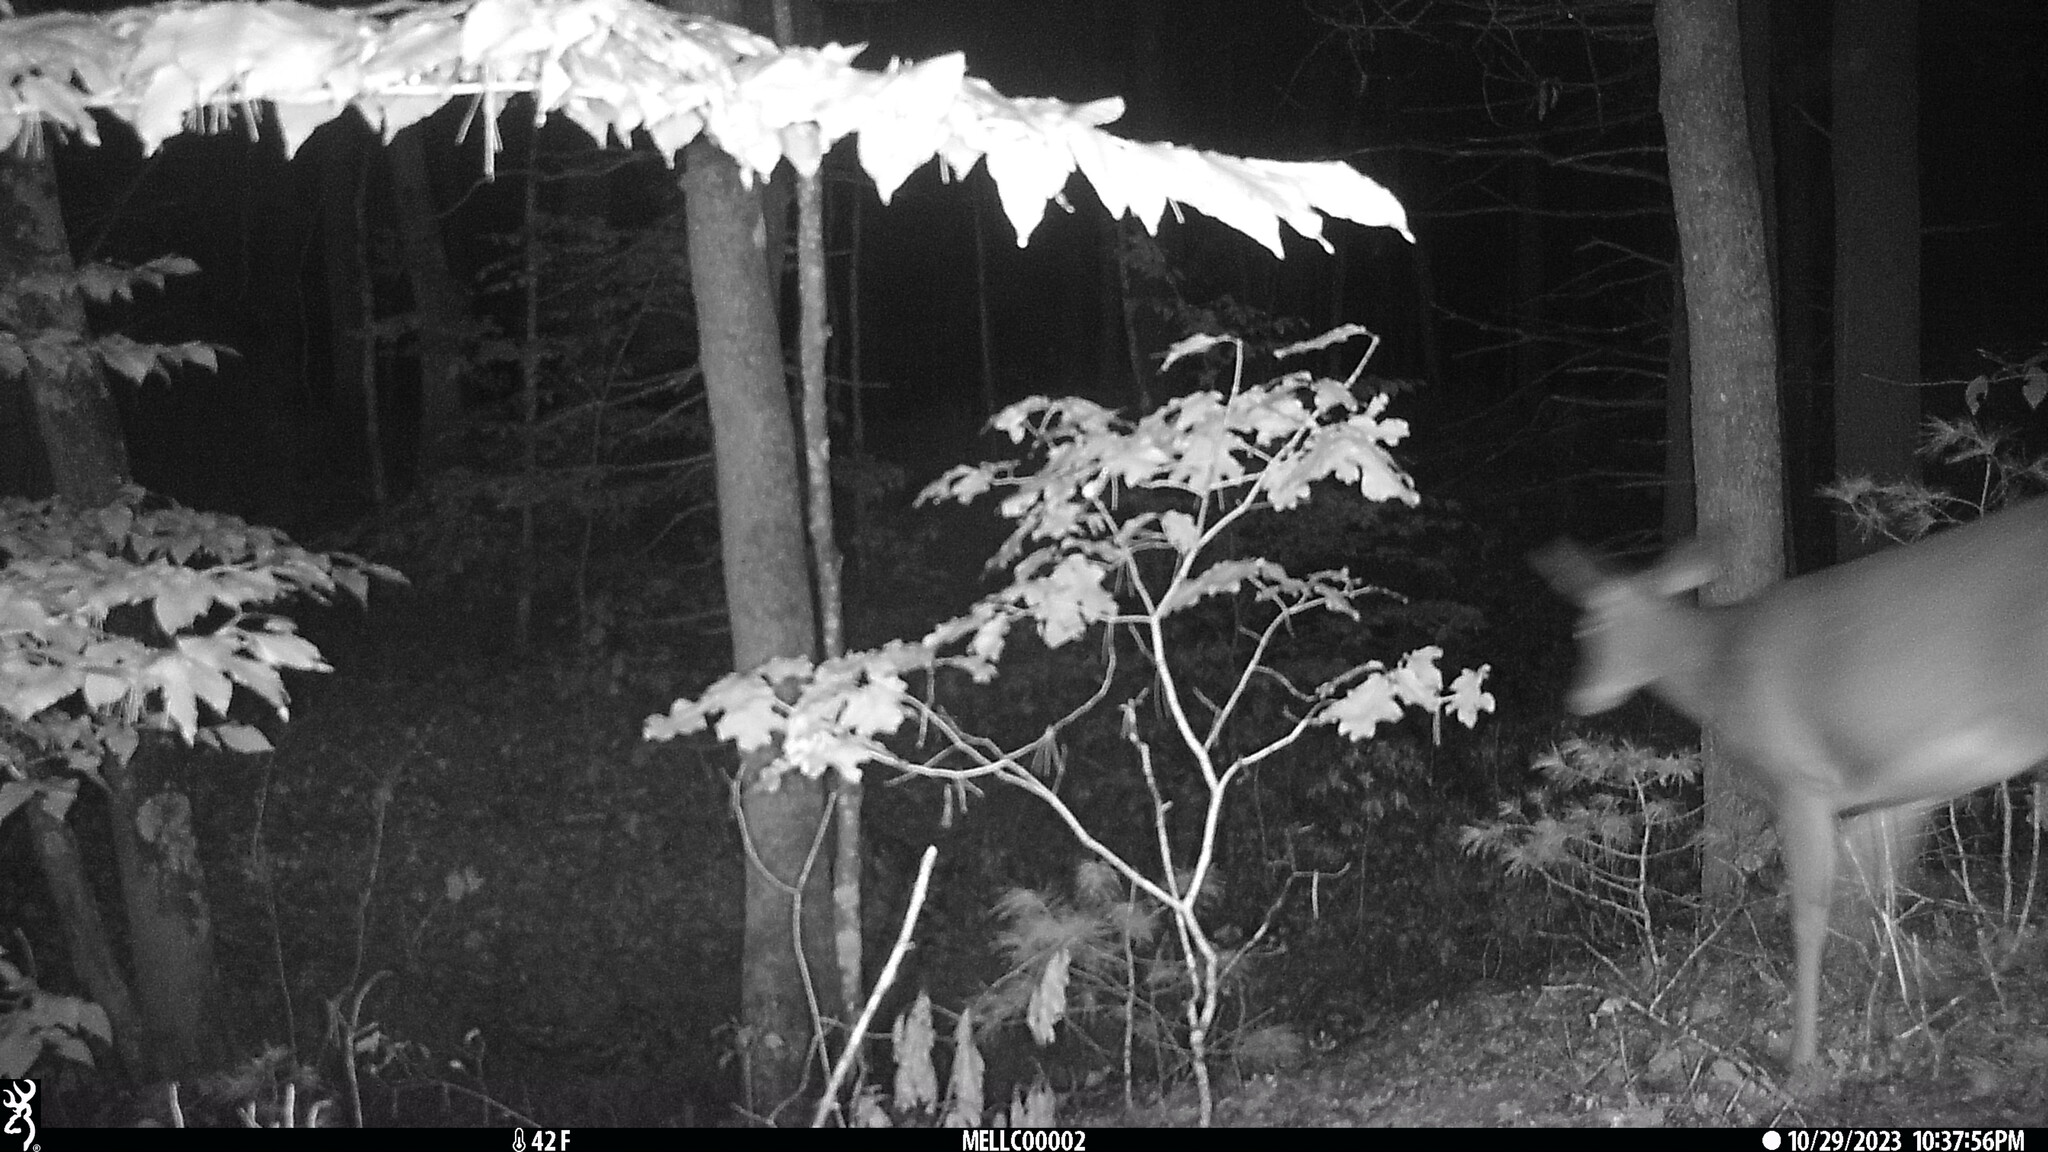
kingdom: Animalia
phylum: Chordata
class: Mammalia
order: Artiodactyla
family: Cervidae
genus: Odocoileus
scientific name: Odocoileus virginianus
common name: White-tailed deer
